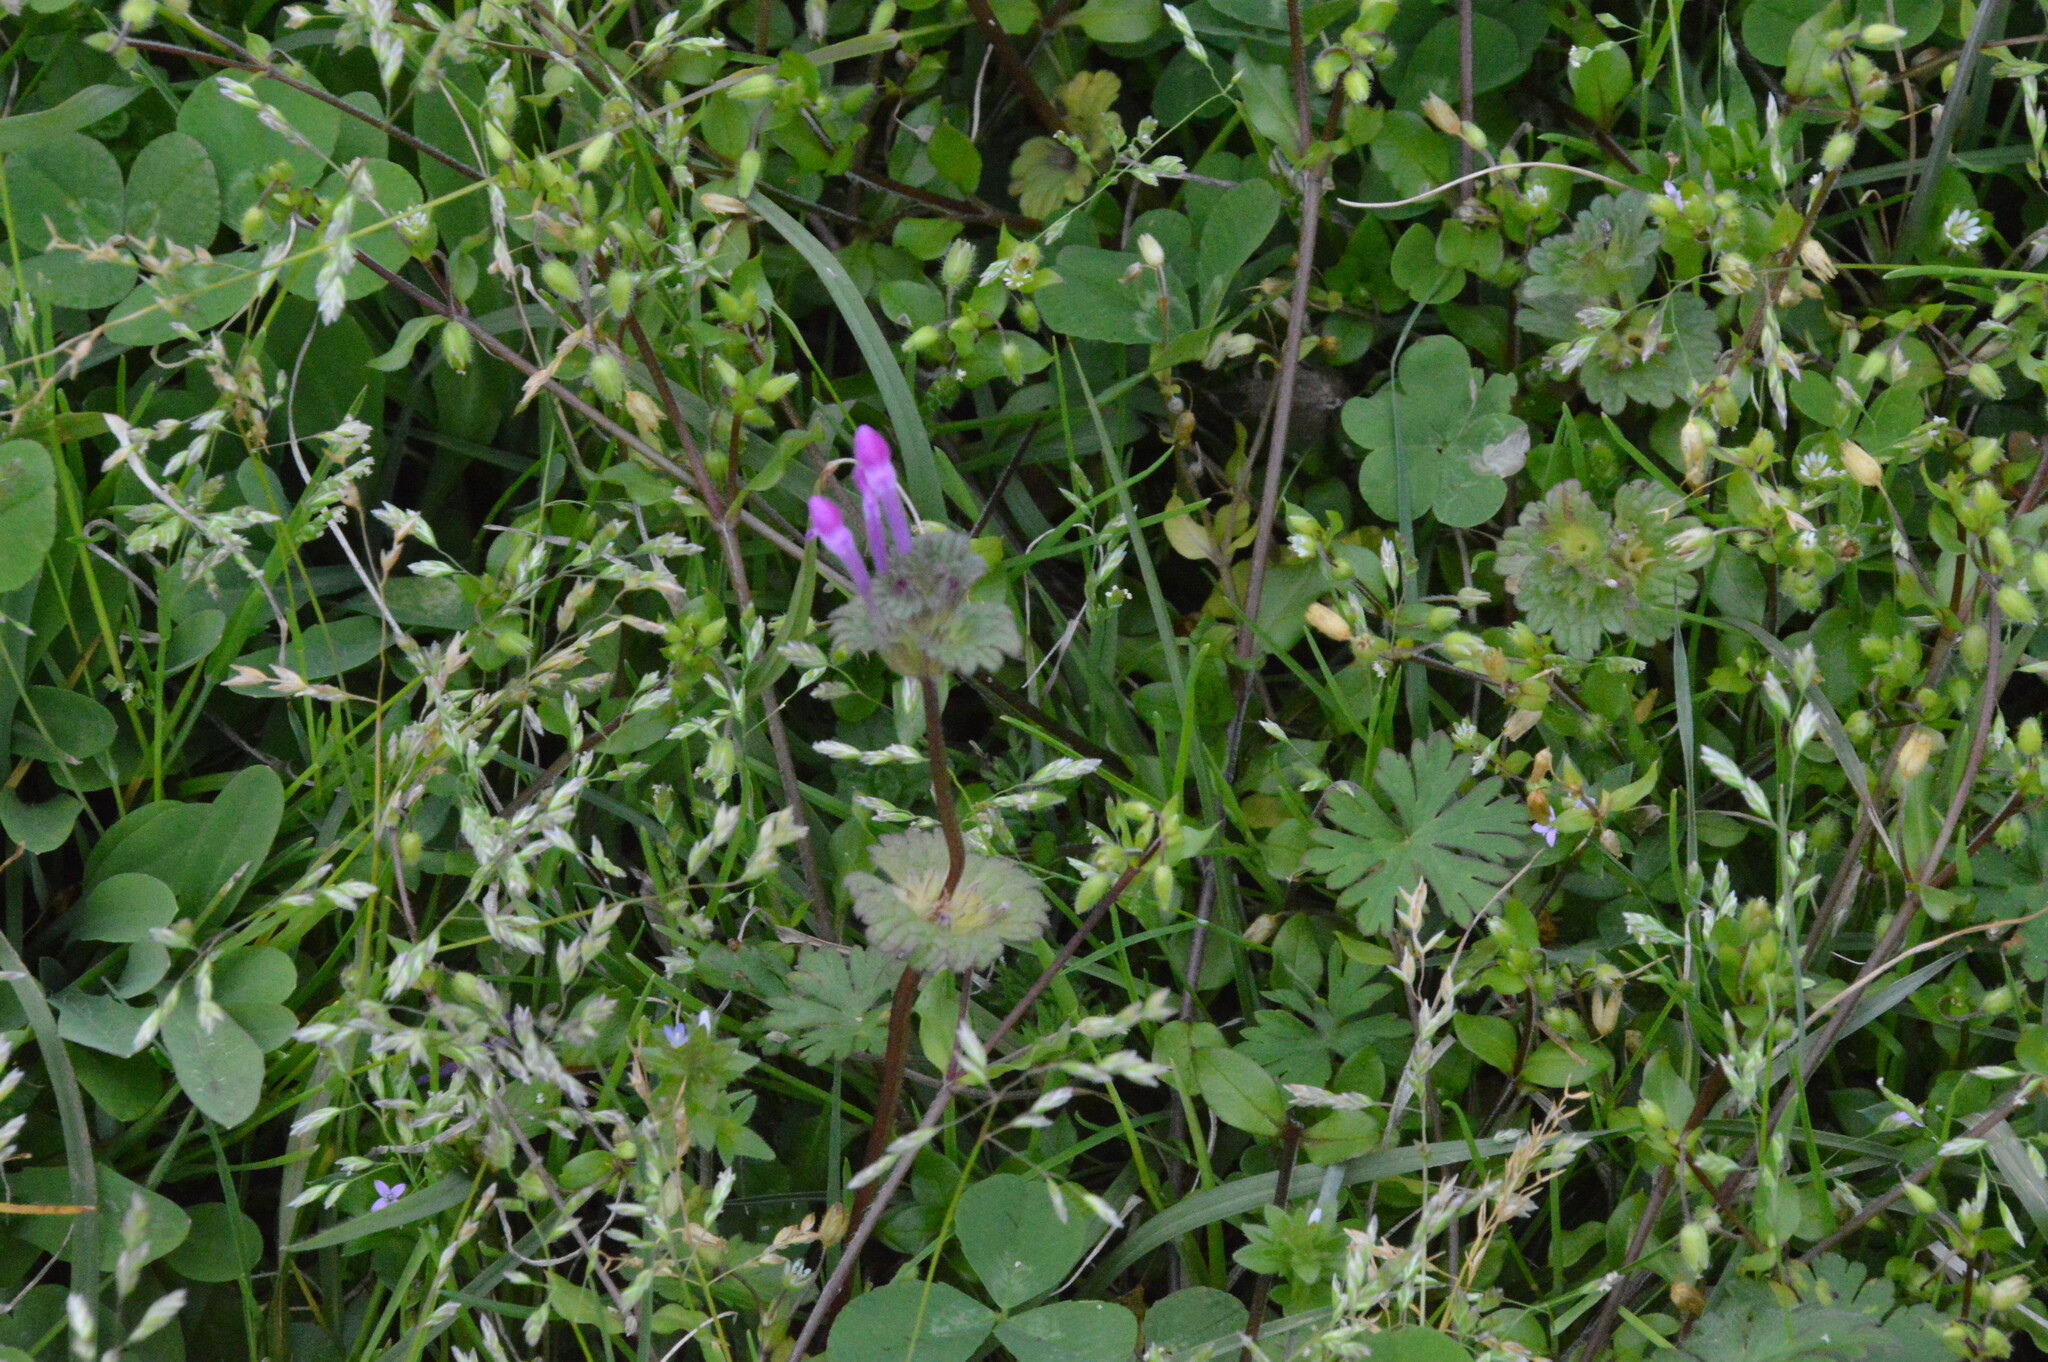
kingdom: Plantae
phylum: Tracheophyta
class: Magnoliopsida
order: Lamiales
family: Lamiaceae
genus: Lamium
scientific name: Lamium amplexicaule
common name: Henbit dead-nettle
